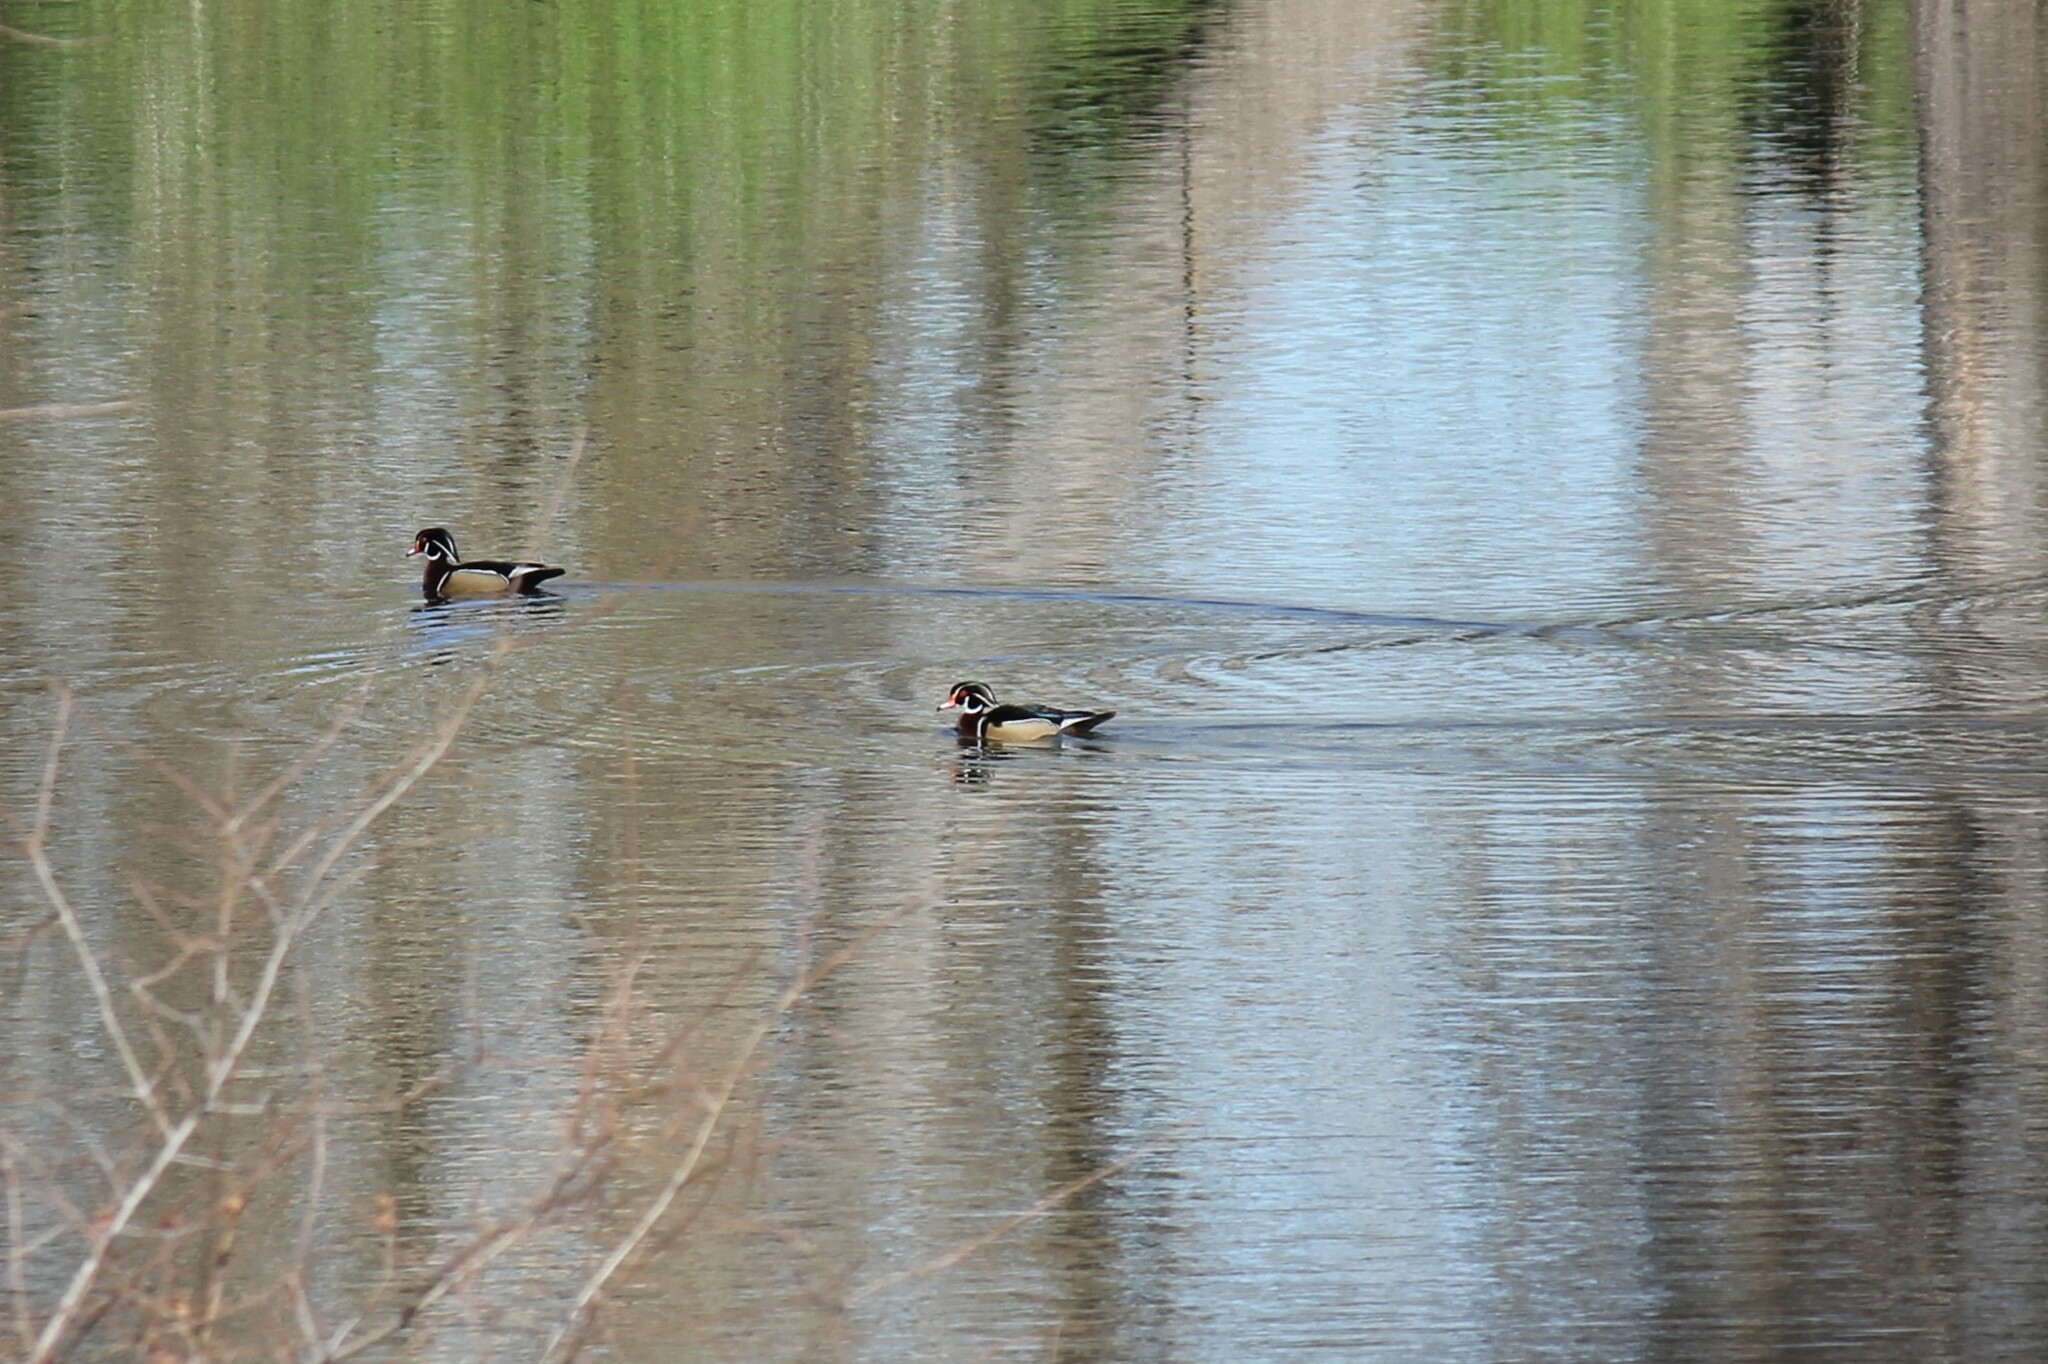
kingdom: Animalia
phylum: Chordata
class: Aves
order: Anseriformes
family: Anatidae
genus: Aix
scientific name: Aix sponsa
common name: Wood duck
